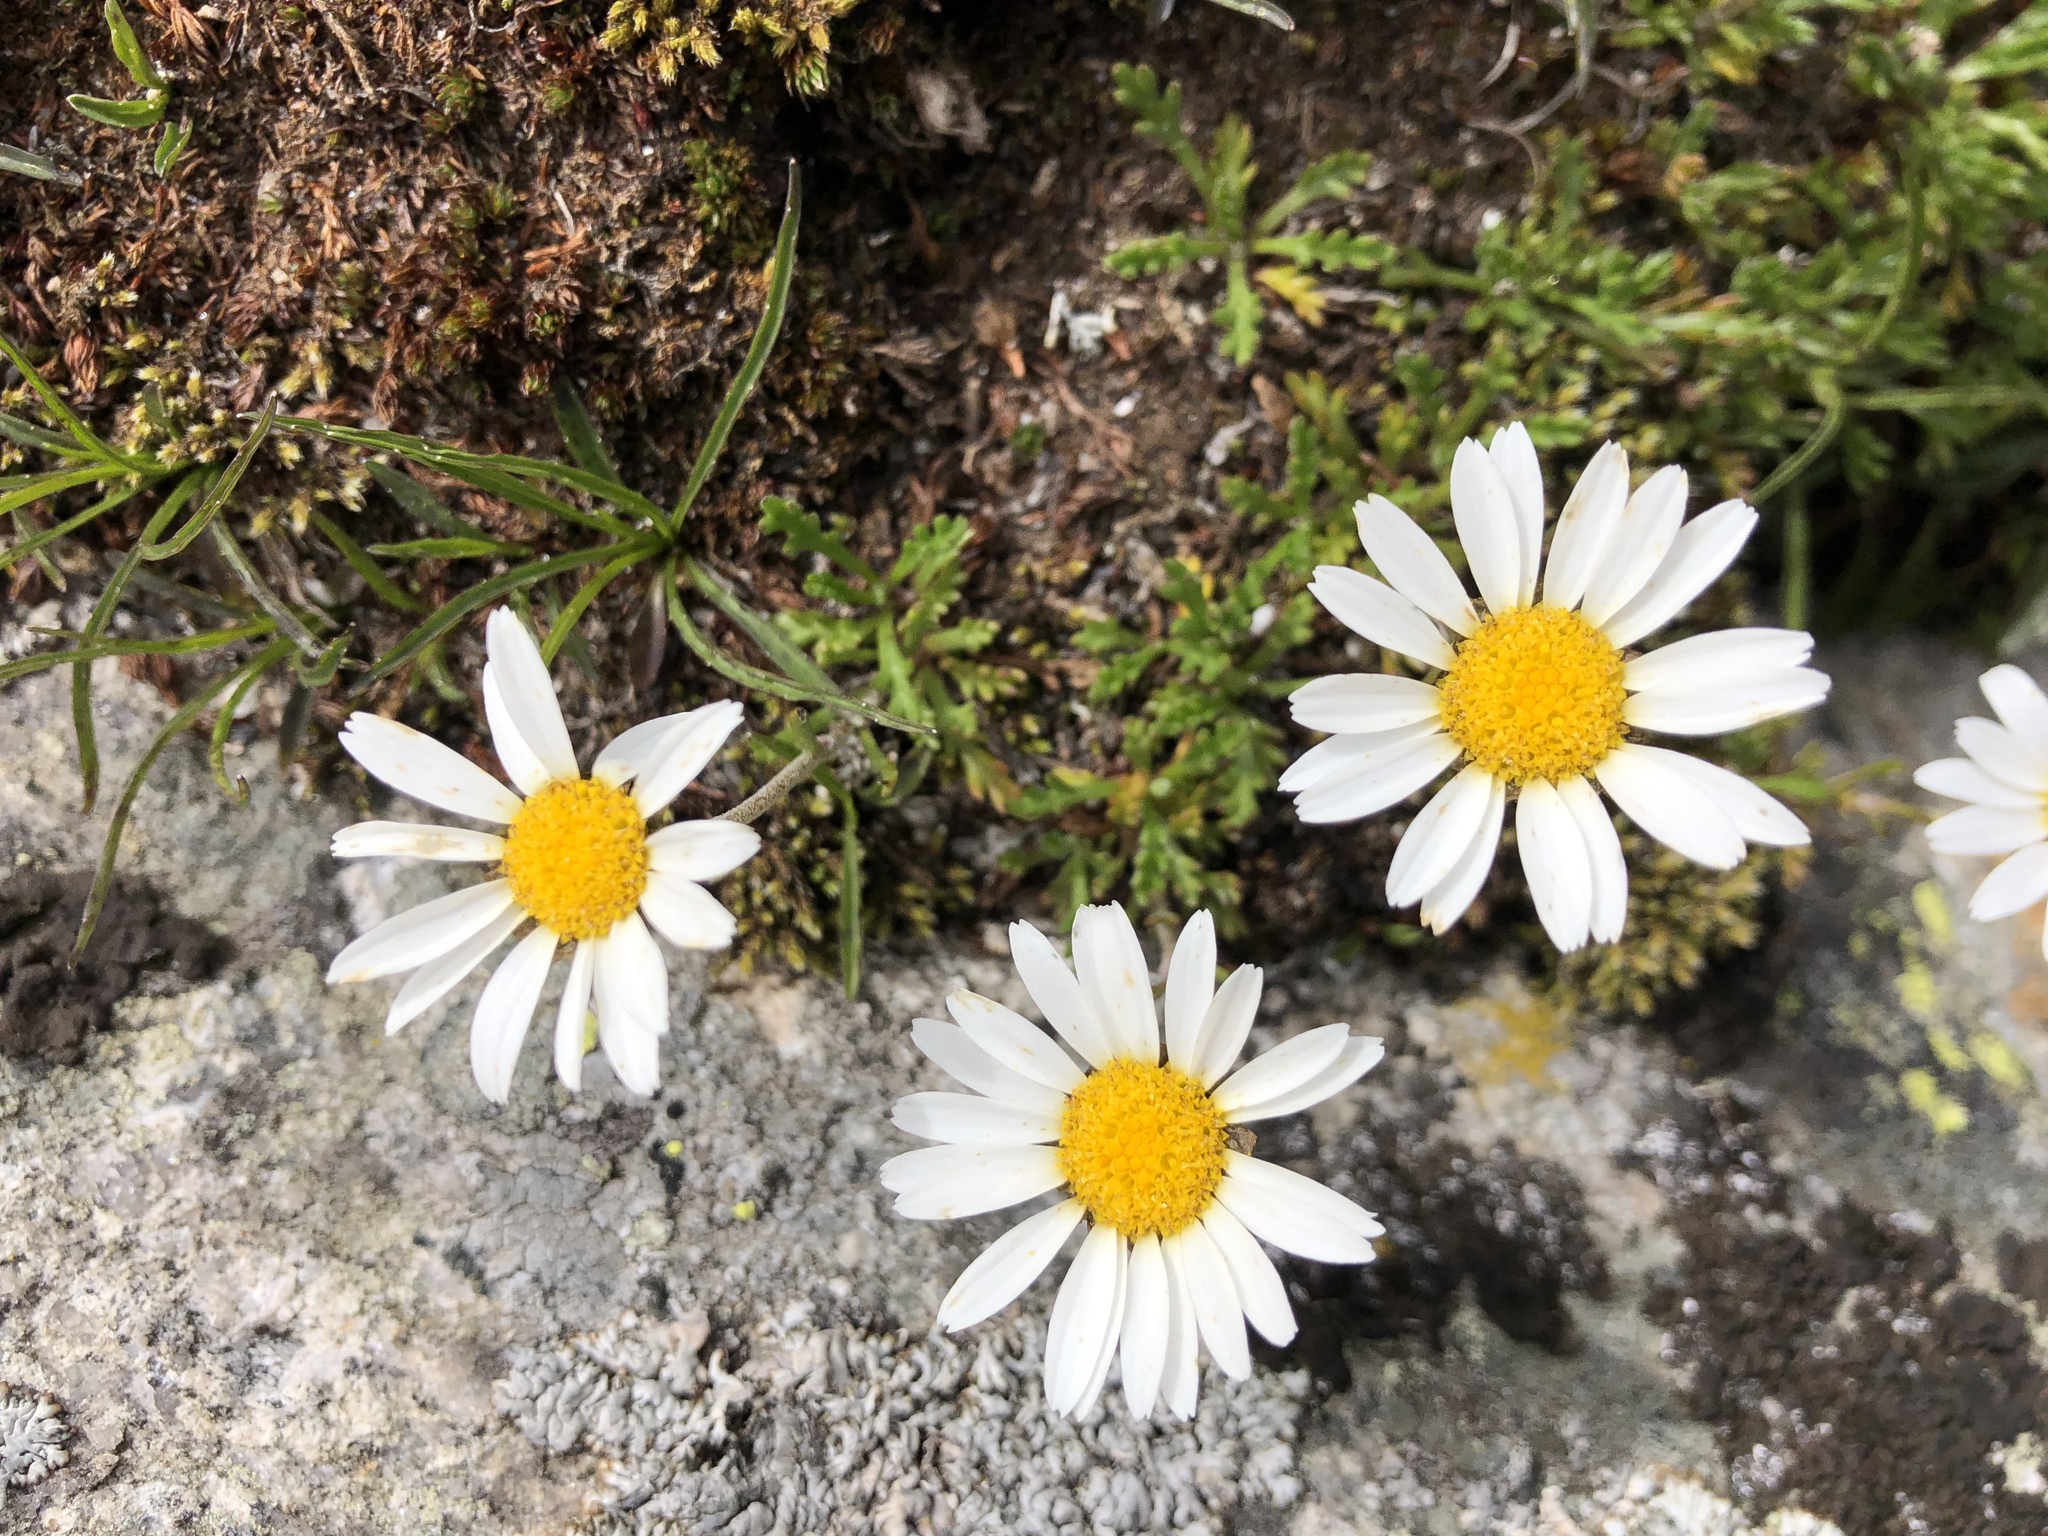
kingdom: Plantae
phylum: Tracheophyta
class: Magnoliopsida
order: Asterales
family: Asteraceae
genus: Leucanthemopsis
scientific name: Leucanthemopsis alpina
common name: Alpine moon daisy
